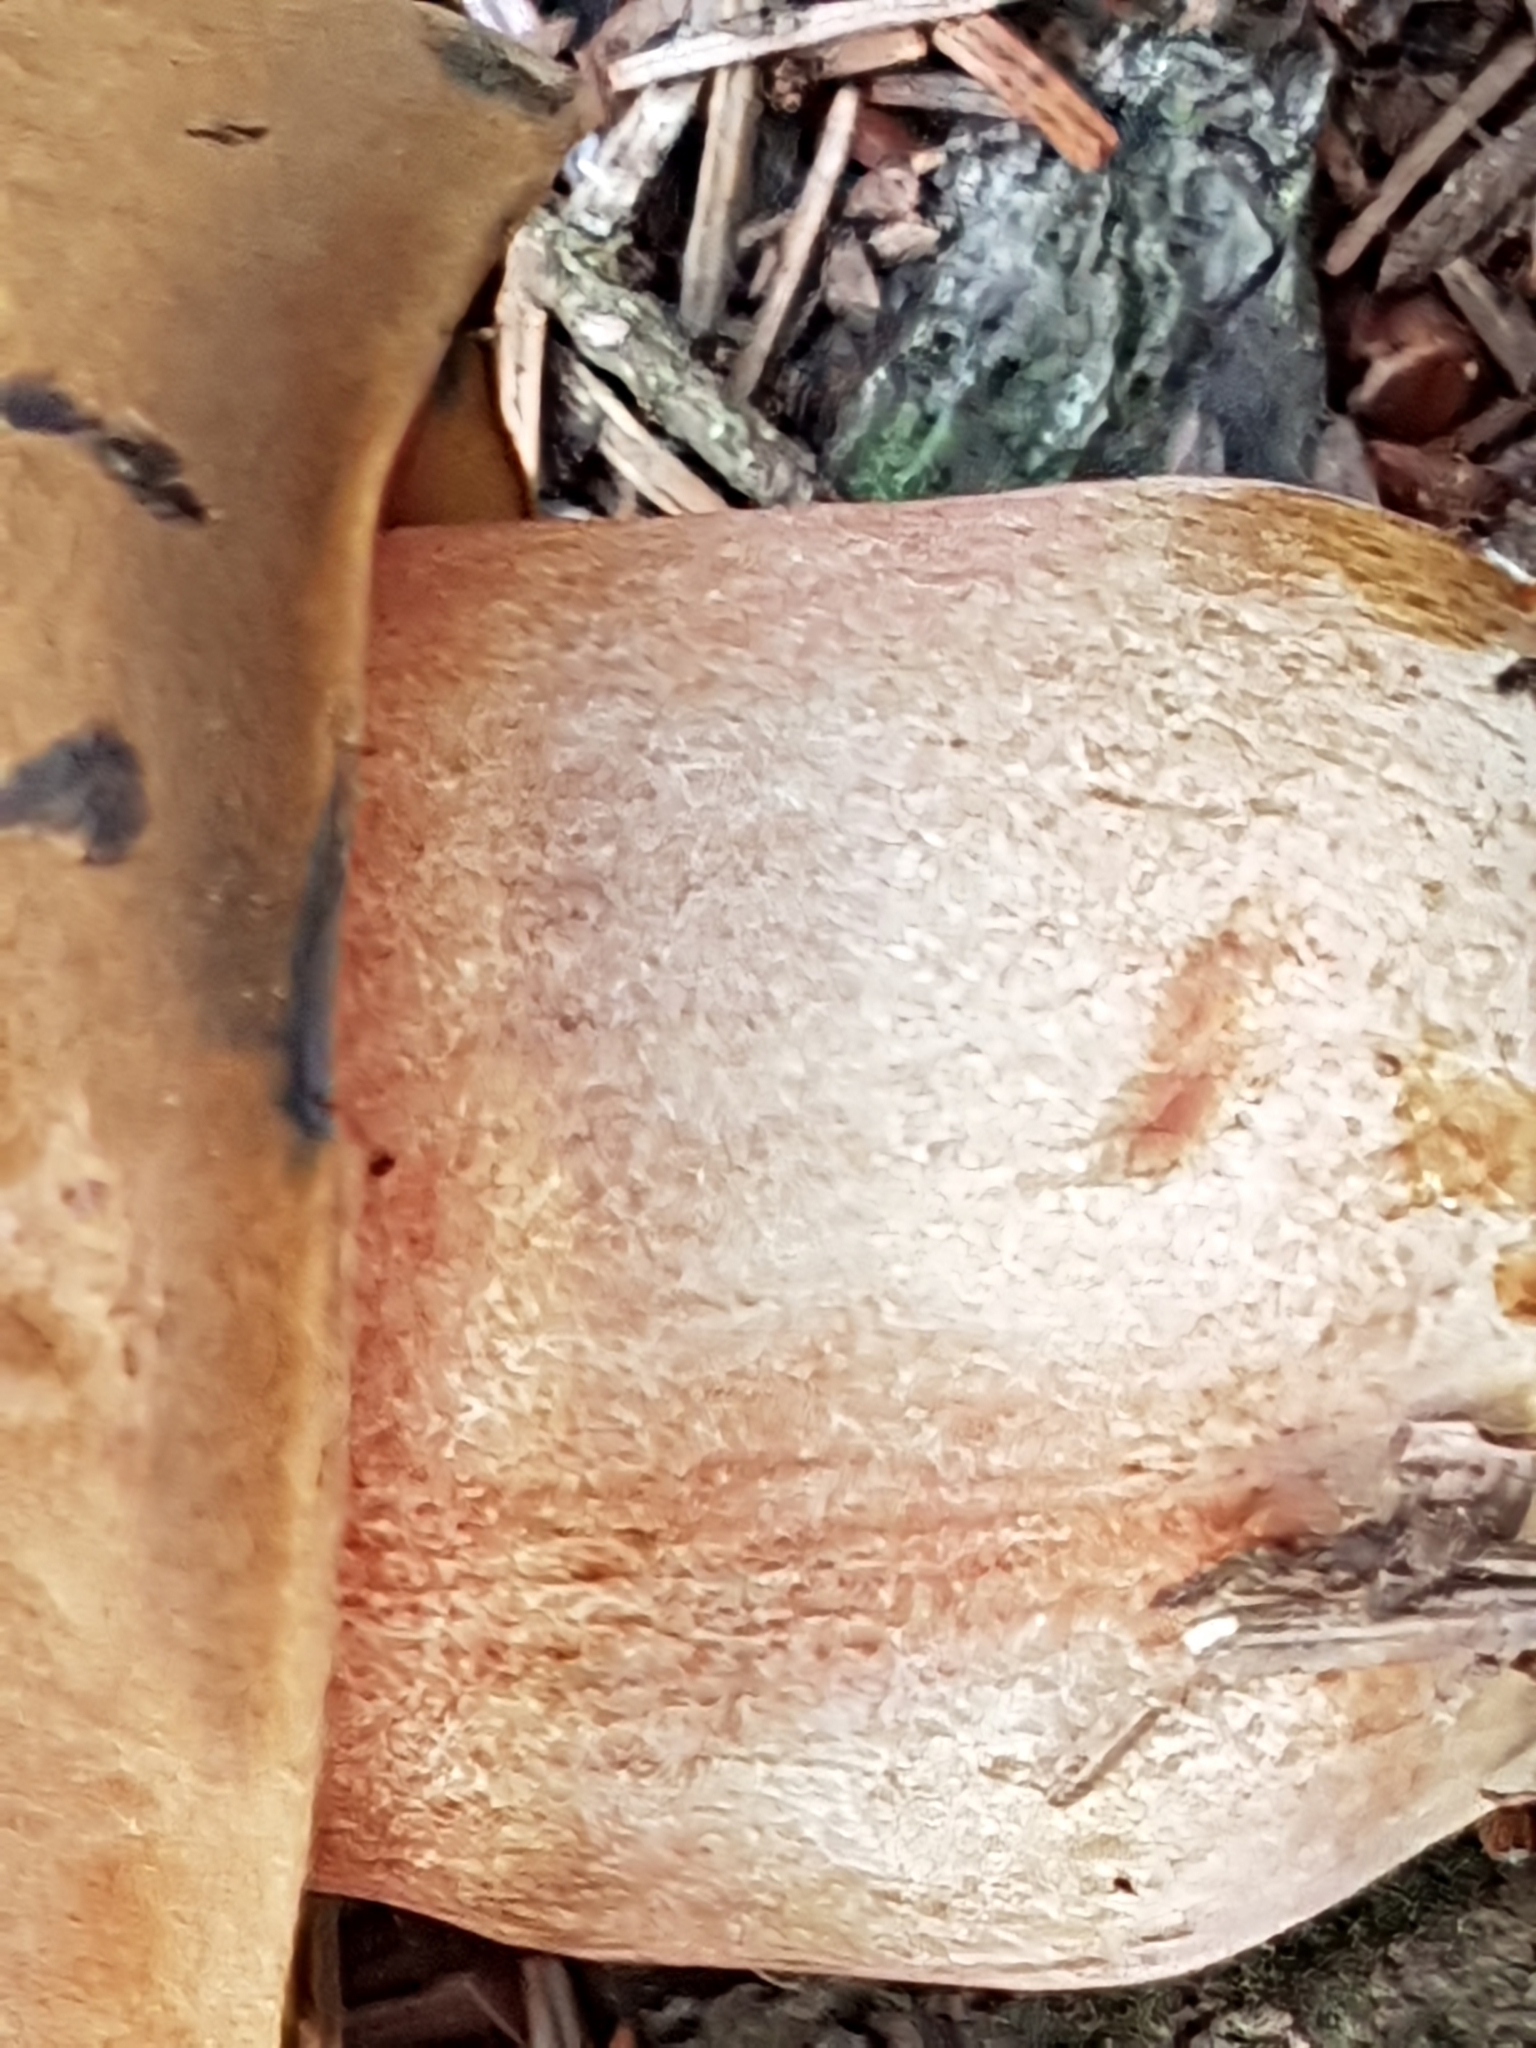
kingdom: Fungi
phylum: Basidiomycota
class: Agaricomycetes
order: Boletales
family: Boletaceae
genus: Neoboletus
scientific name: Neoboletus luridiformis
